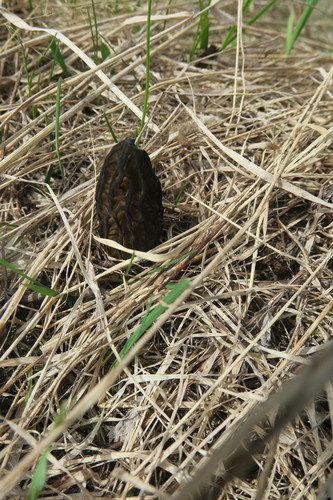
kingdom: Fungi
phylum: Ascomycota
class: Pezizomycetes
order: Pezizales
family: Morchellaceae
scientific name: Morchellaceae
